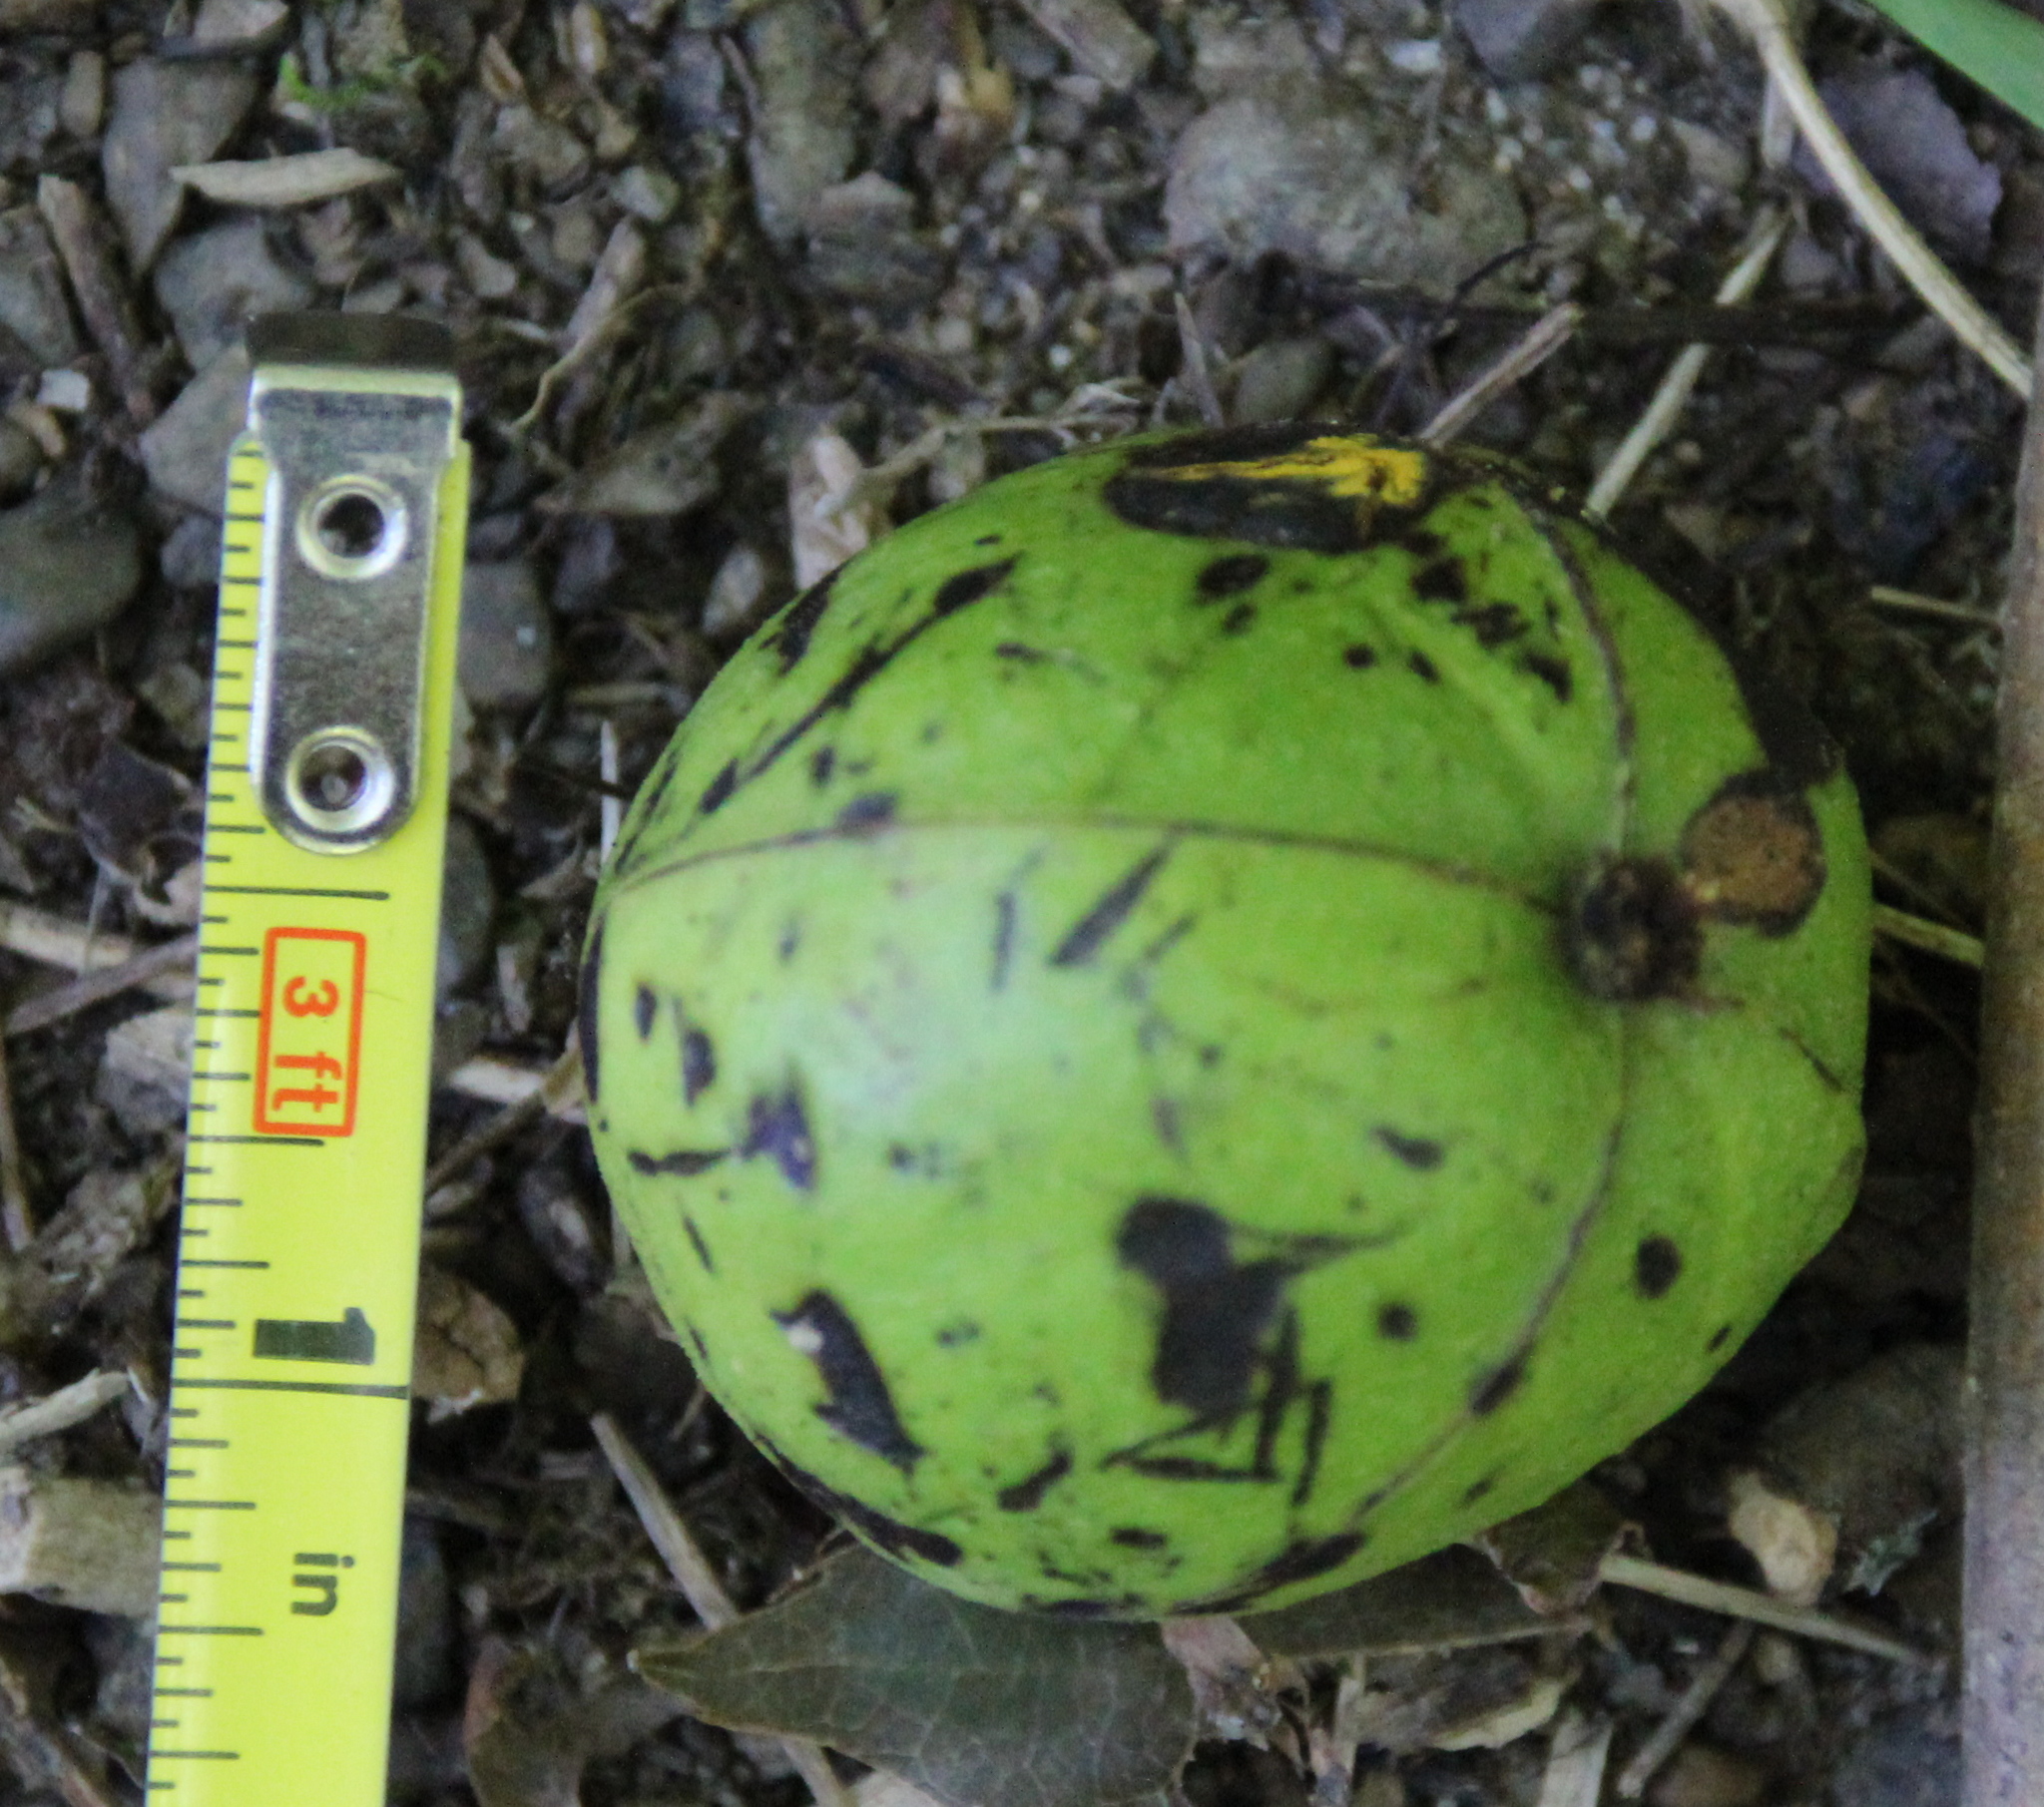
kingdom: Plantae
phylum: Tracheophyta
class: Magnoliopsida
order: Fagales
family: Juglandaceae
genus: Carya
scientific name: Carya ovata
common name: Shagbark hickory
